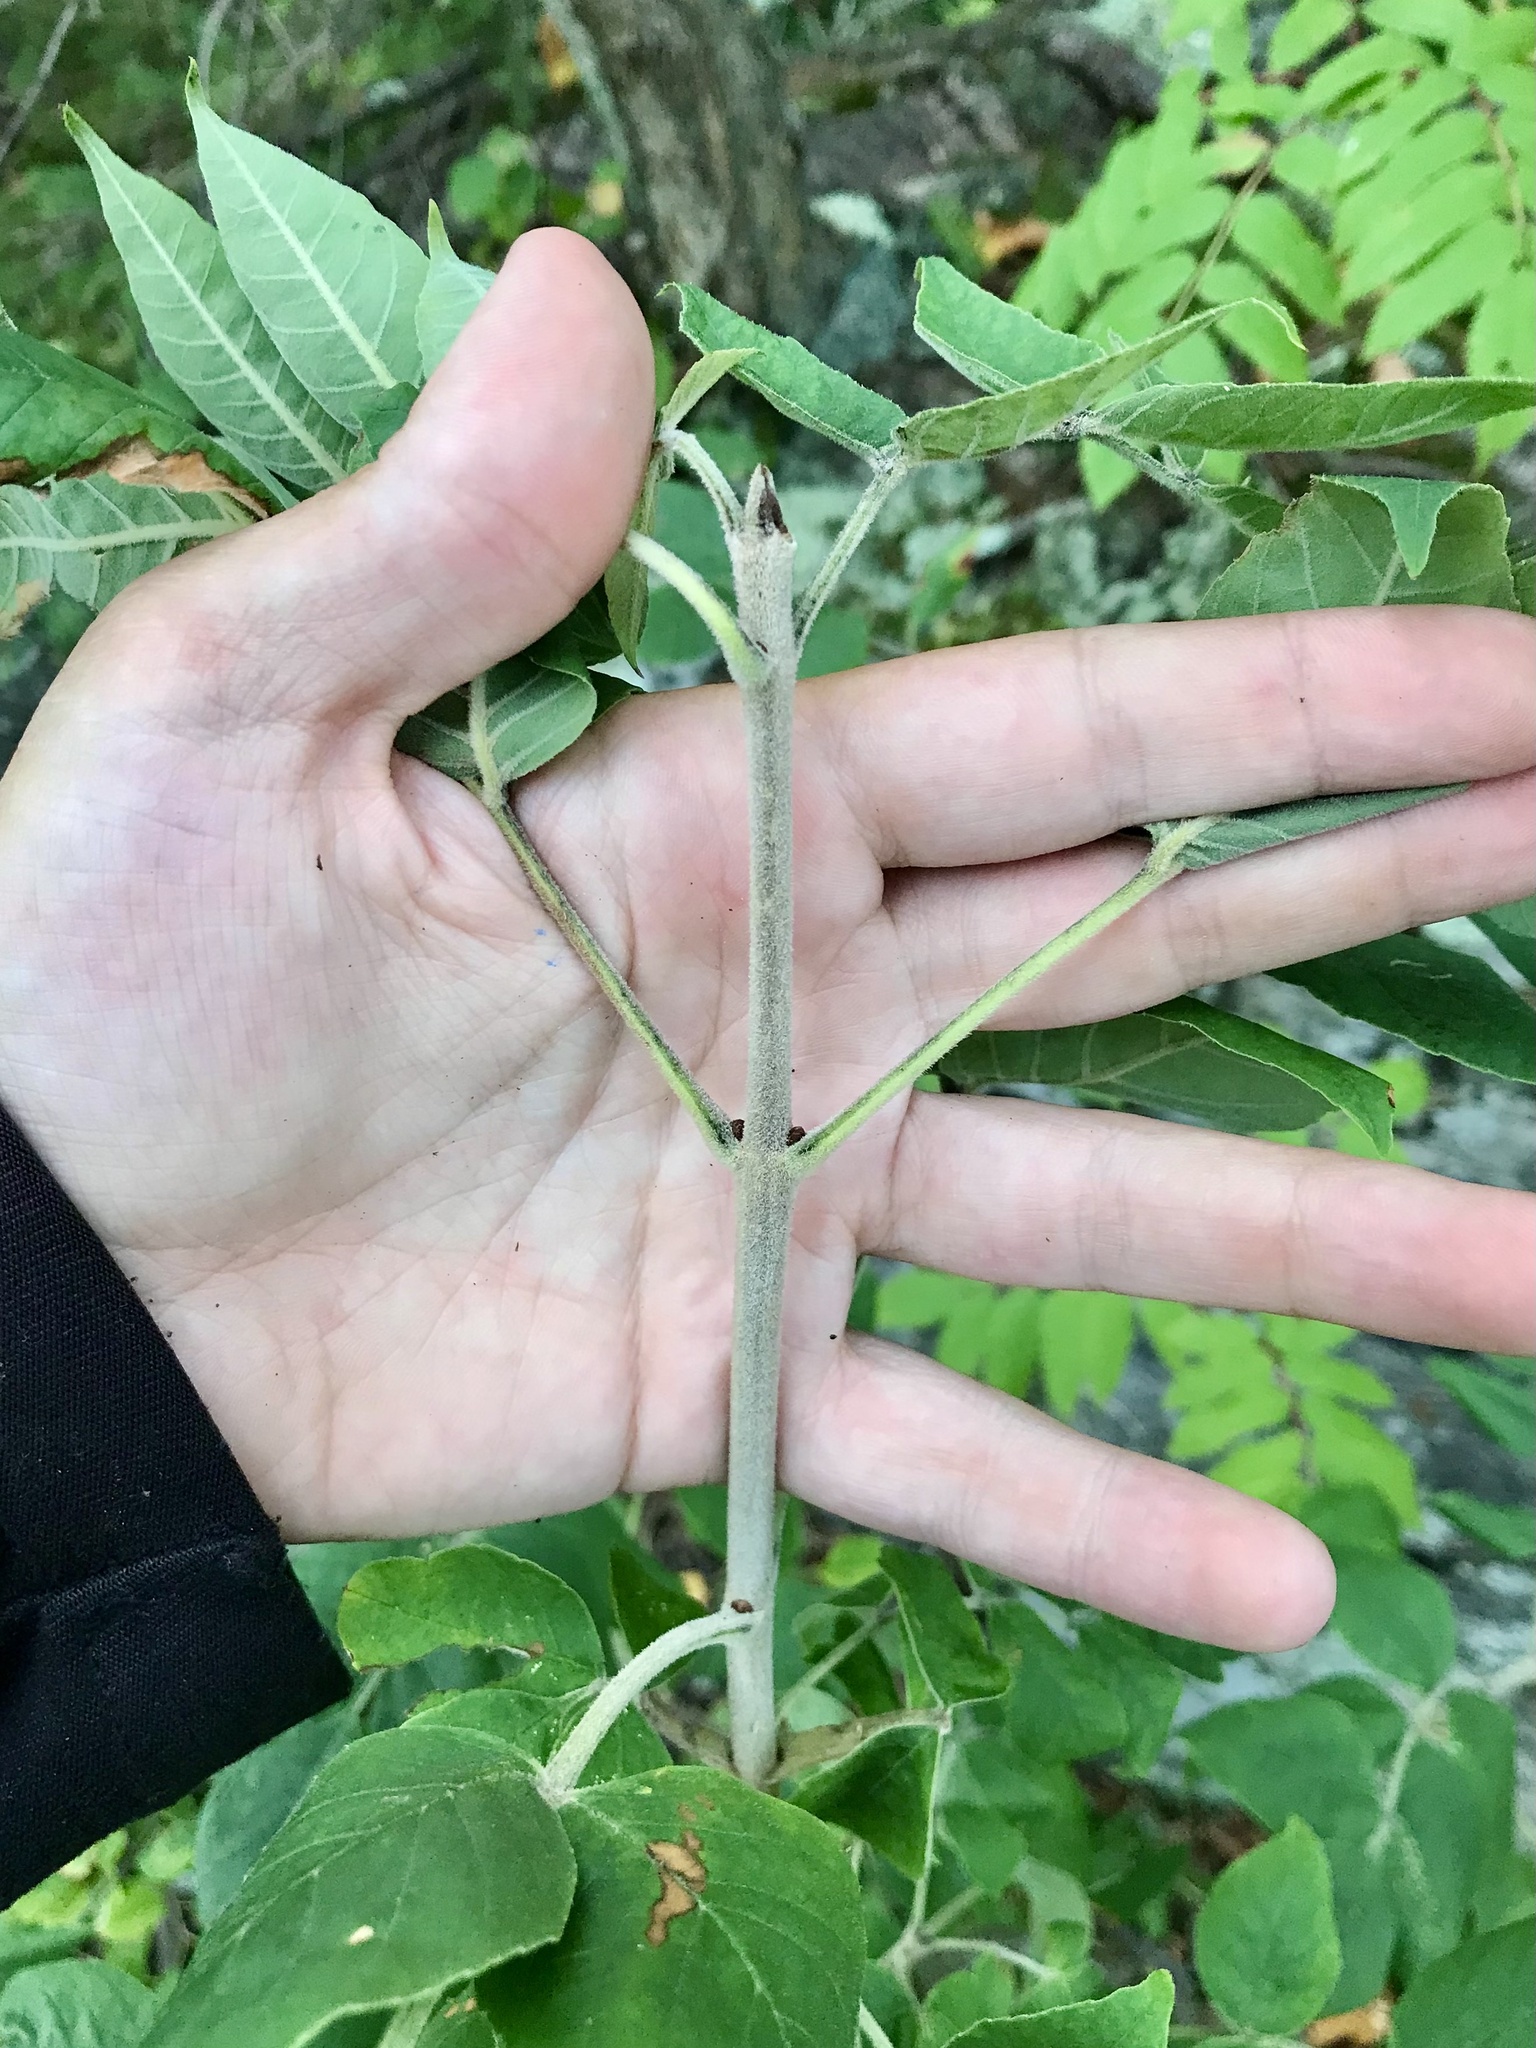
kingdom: Plantae
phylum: Tracheophyta
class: Magnoliopsida
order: Lamiales
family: Oleaceae
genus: Fraxinus
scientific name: Fraxinus pennsylvanica
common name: Green ash
